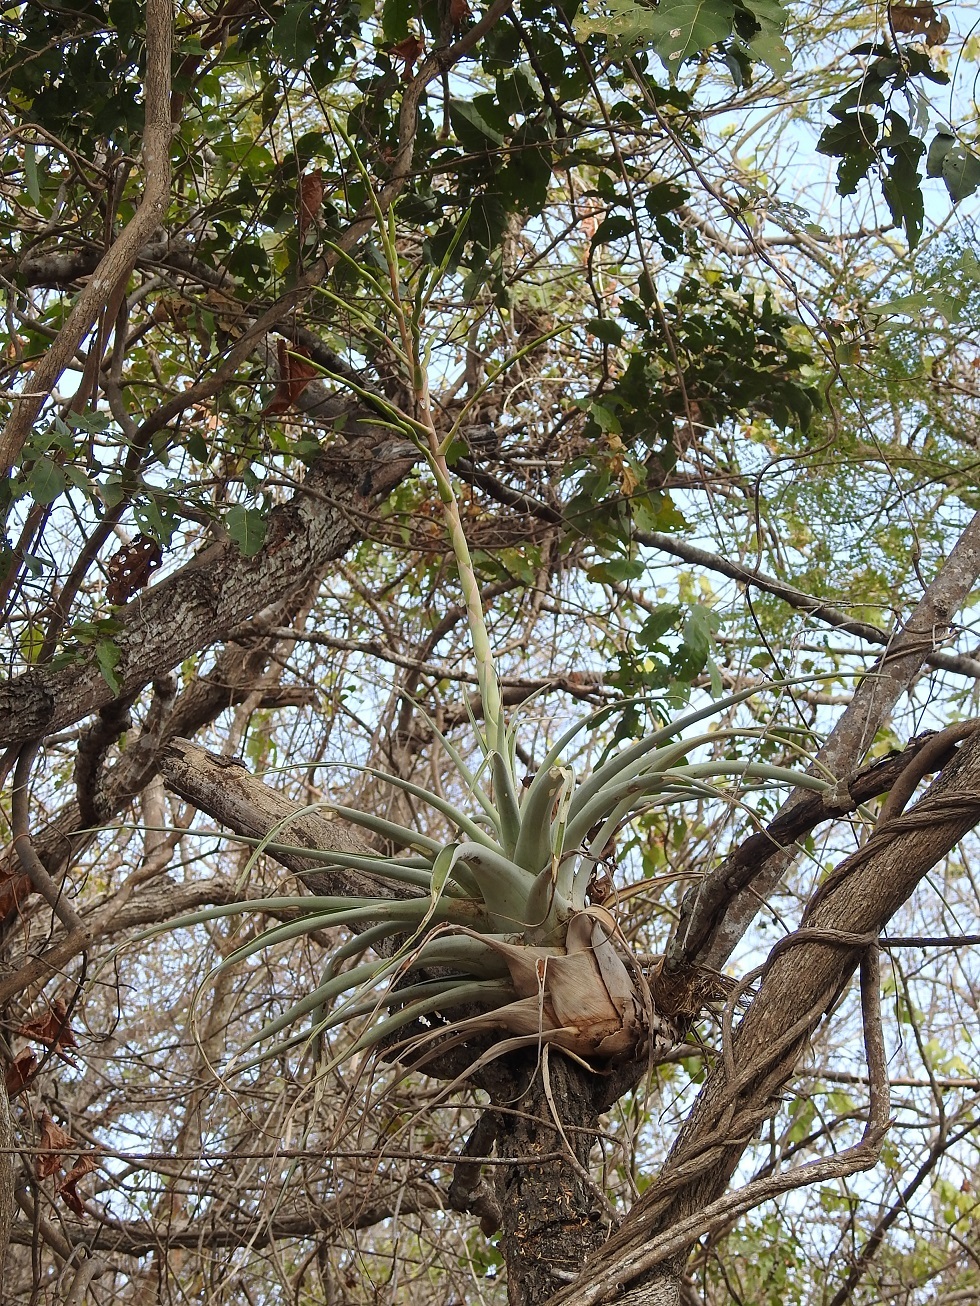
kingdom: Plantae
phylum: Tracheophyta
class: Liliopsida
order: Poales
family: Bromeliaceae
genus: Tillandsia
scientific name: Tillandsia makoyana
